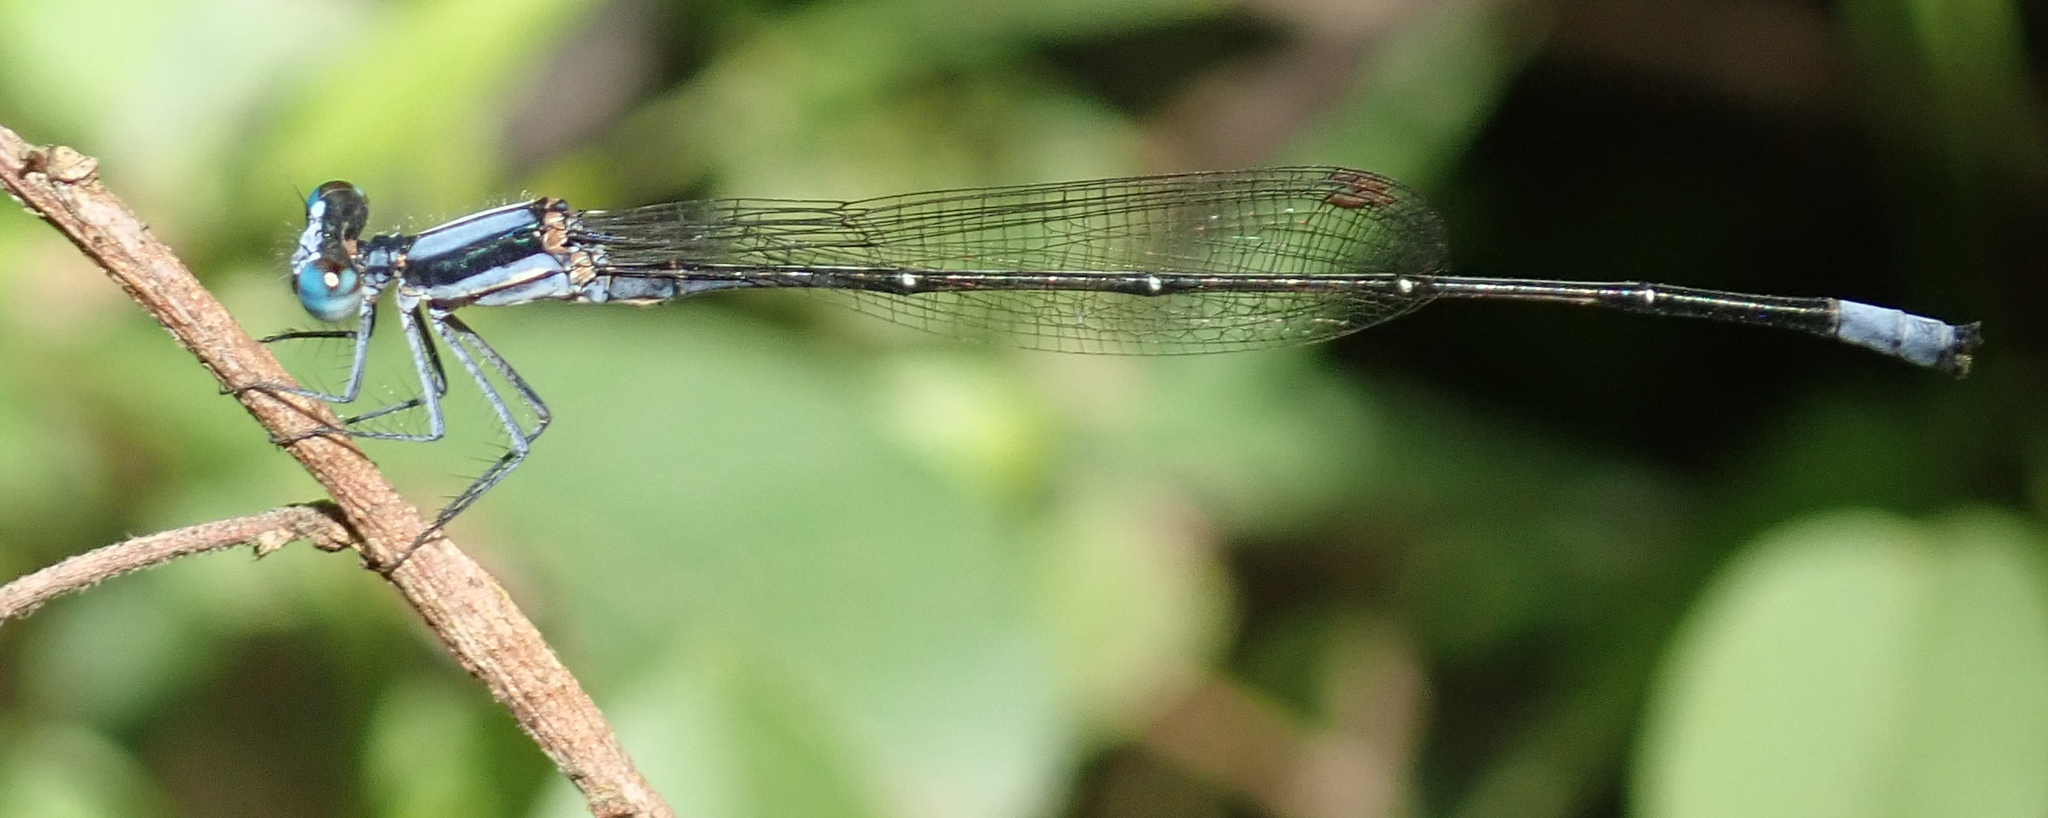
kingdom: Animalia
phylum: Arthropoda
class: Insecta
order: Odonata
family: Platycnemididae
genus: Elattoneura
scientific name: Elattoneura glauca
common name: Common threadtail
